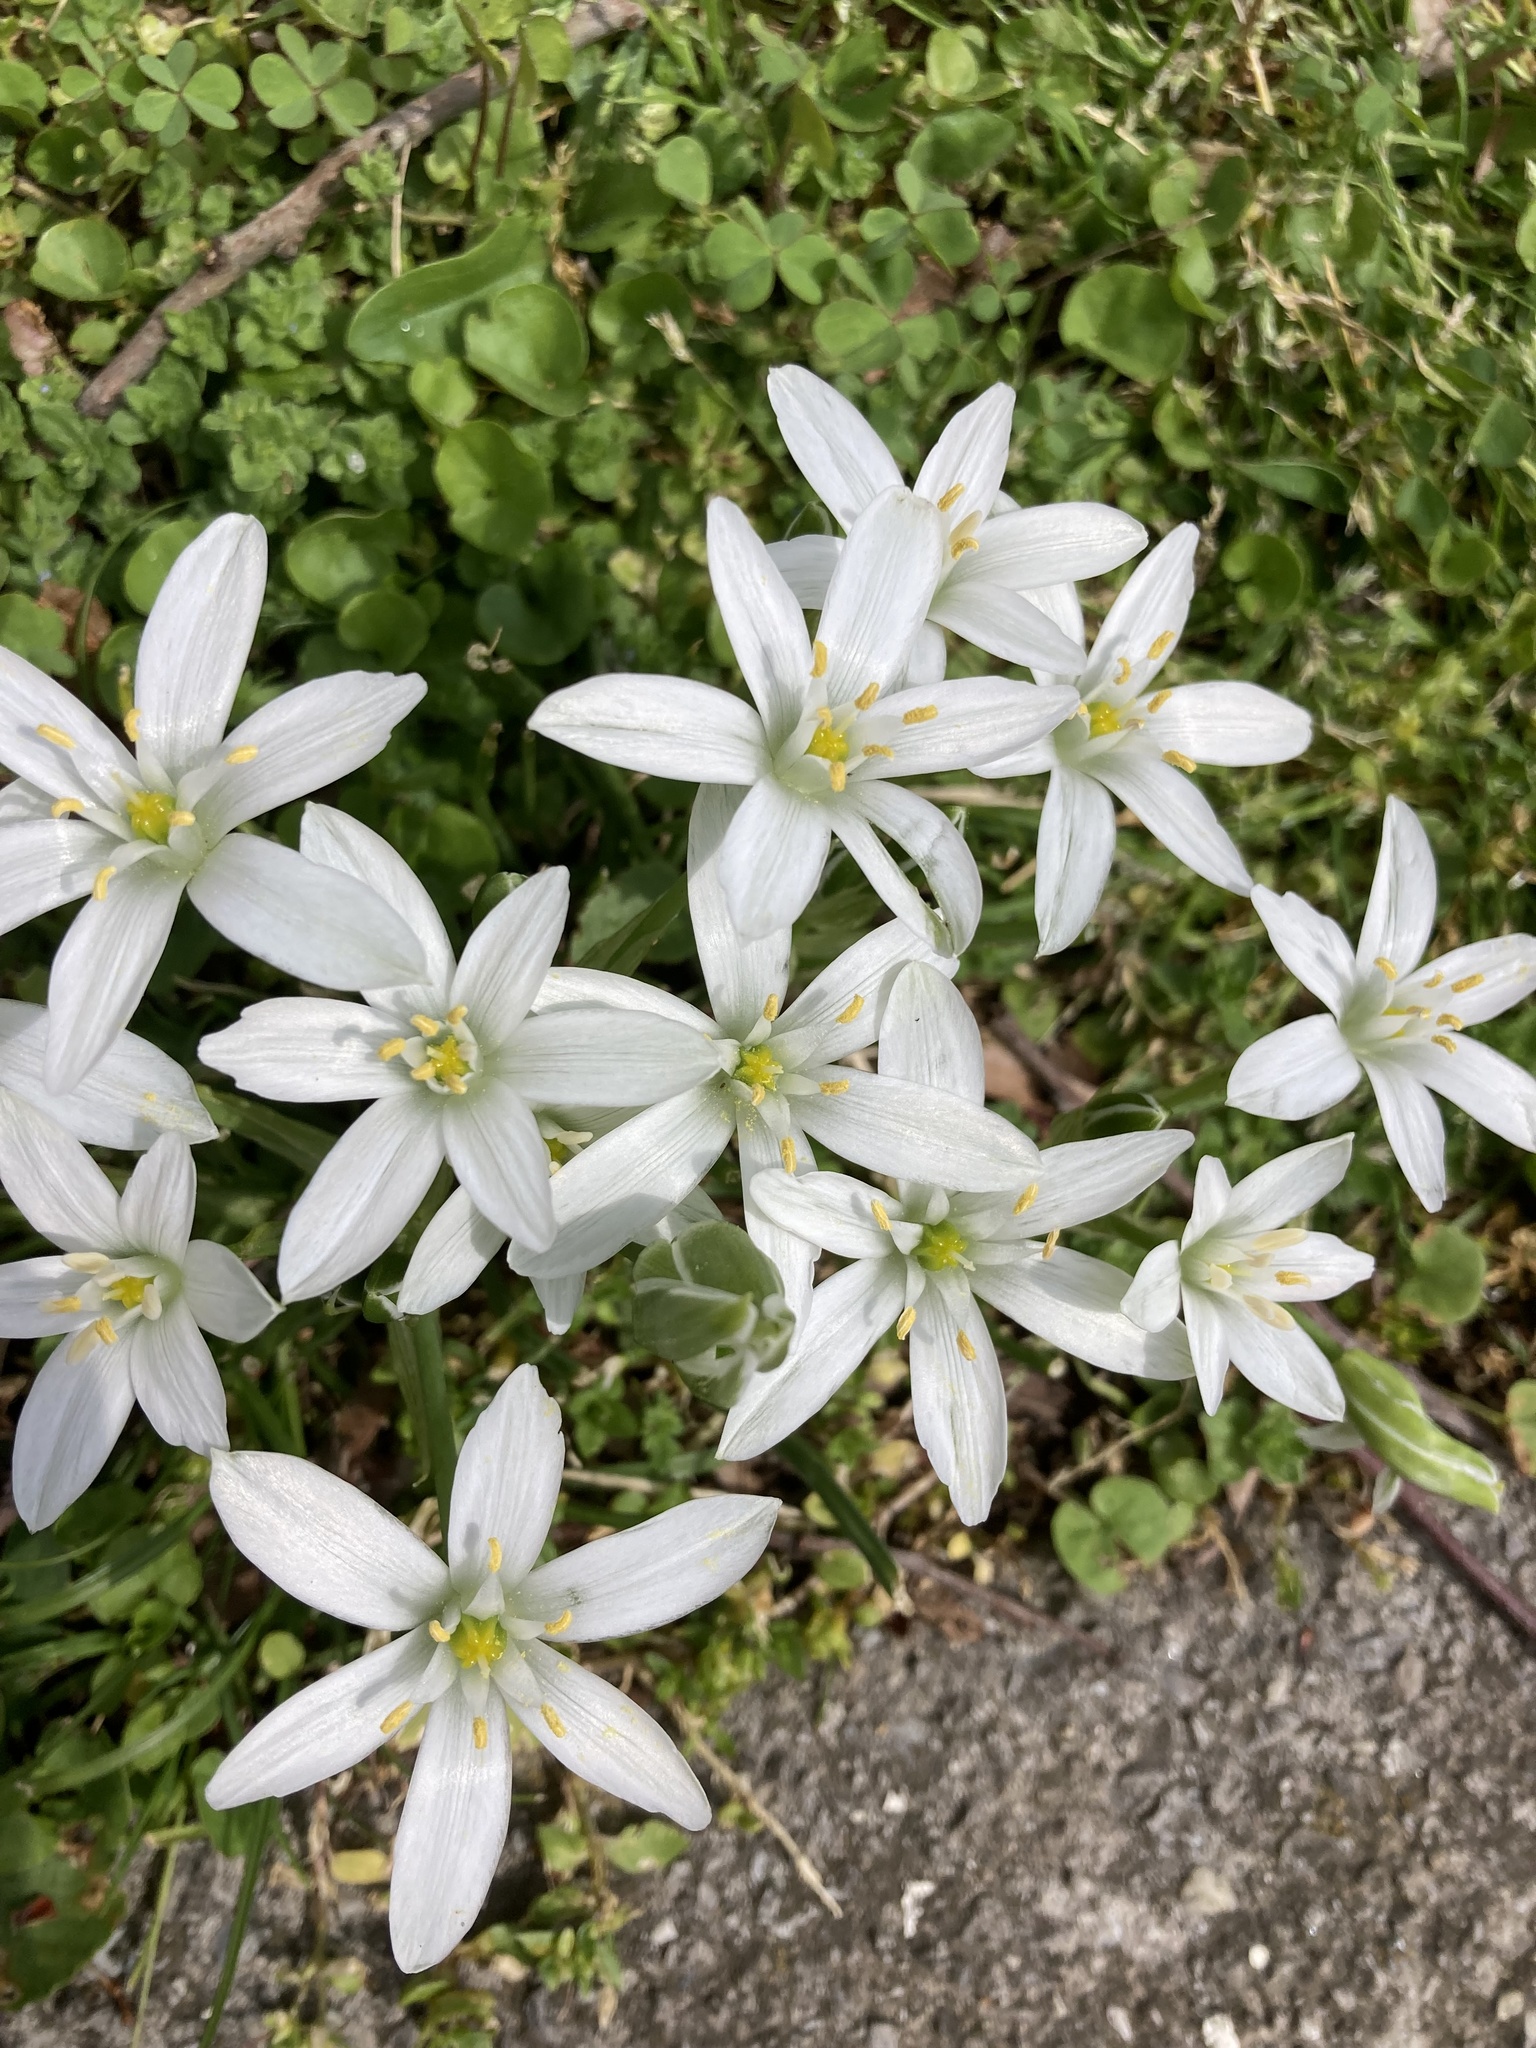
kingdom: Plantae
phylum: Tracheophyta
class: Liliopsida
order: Asparagales
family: Asparagaceae
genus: Ornithogalum
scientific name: Ornithogalum umbellatum
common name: Garden star-of-bethlehem
